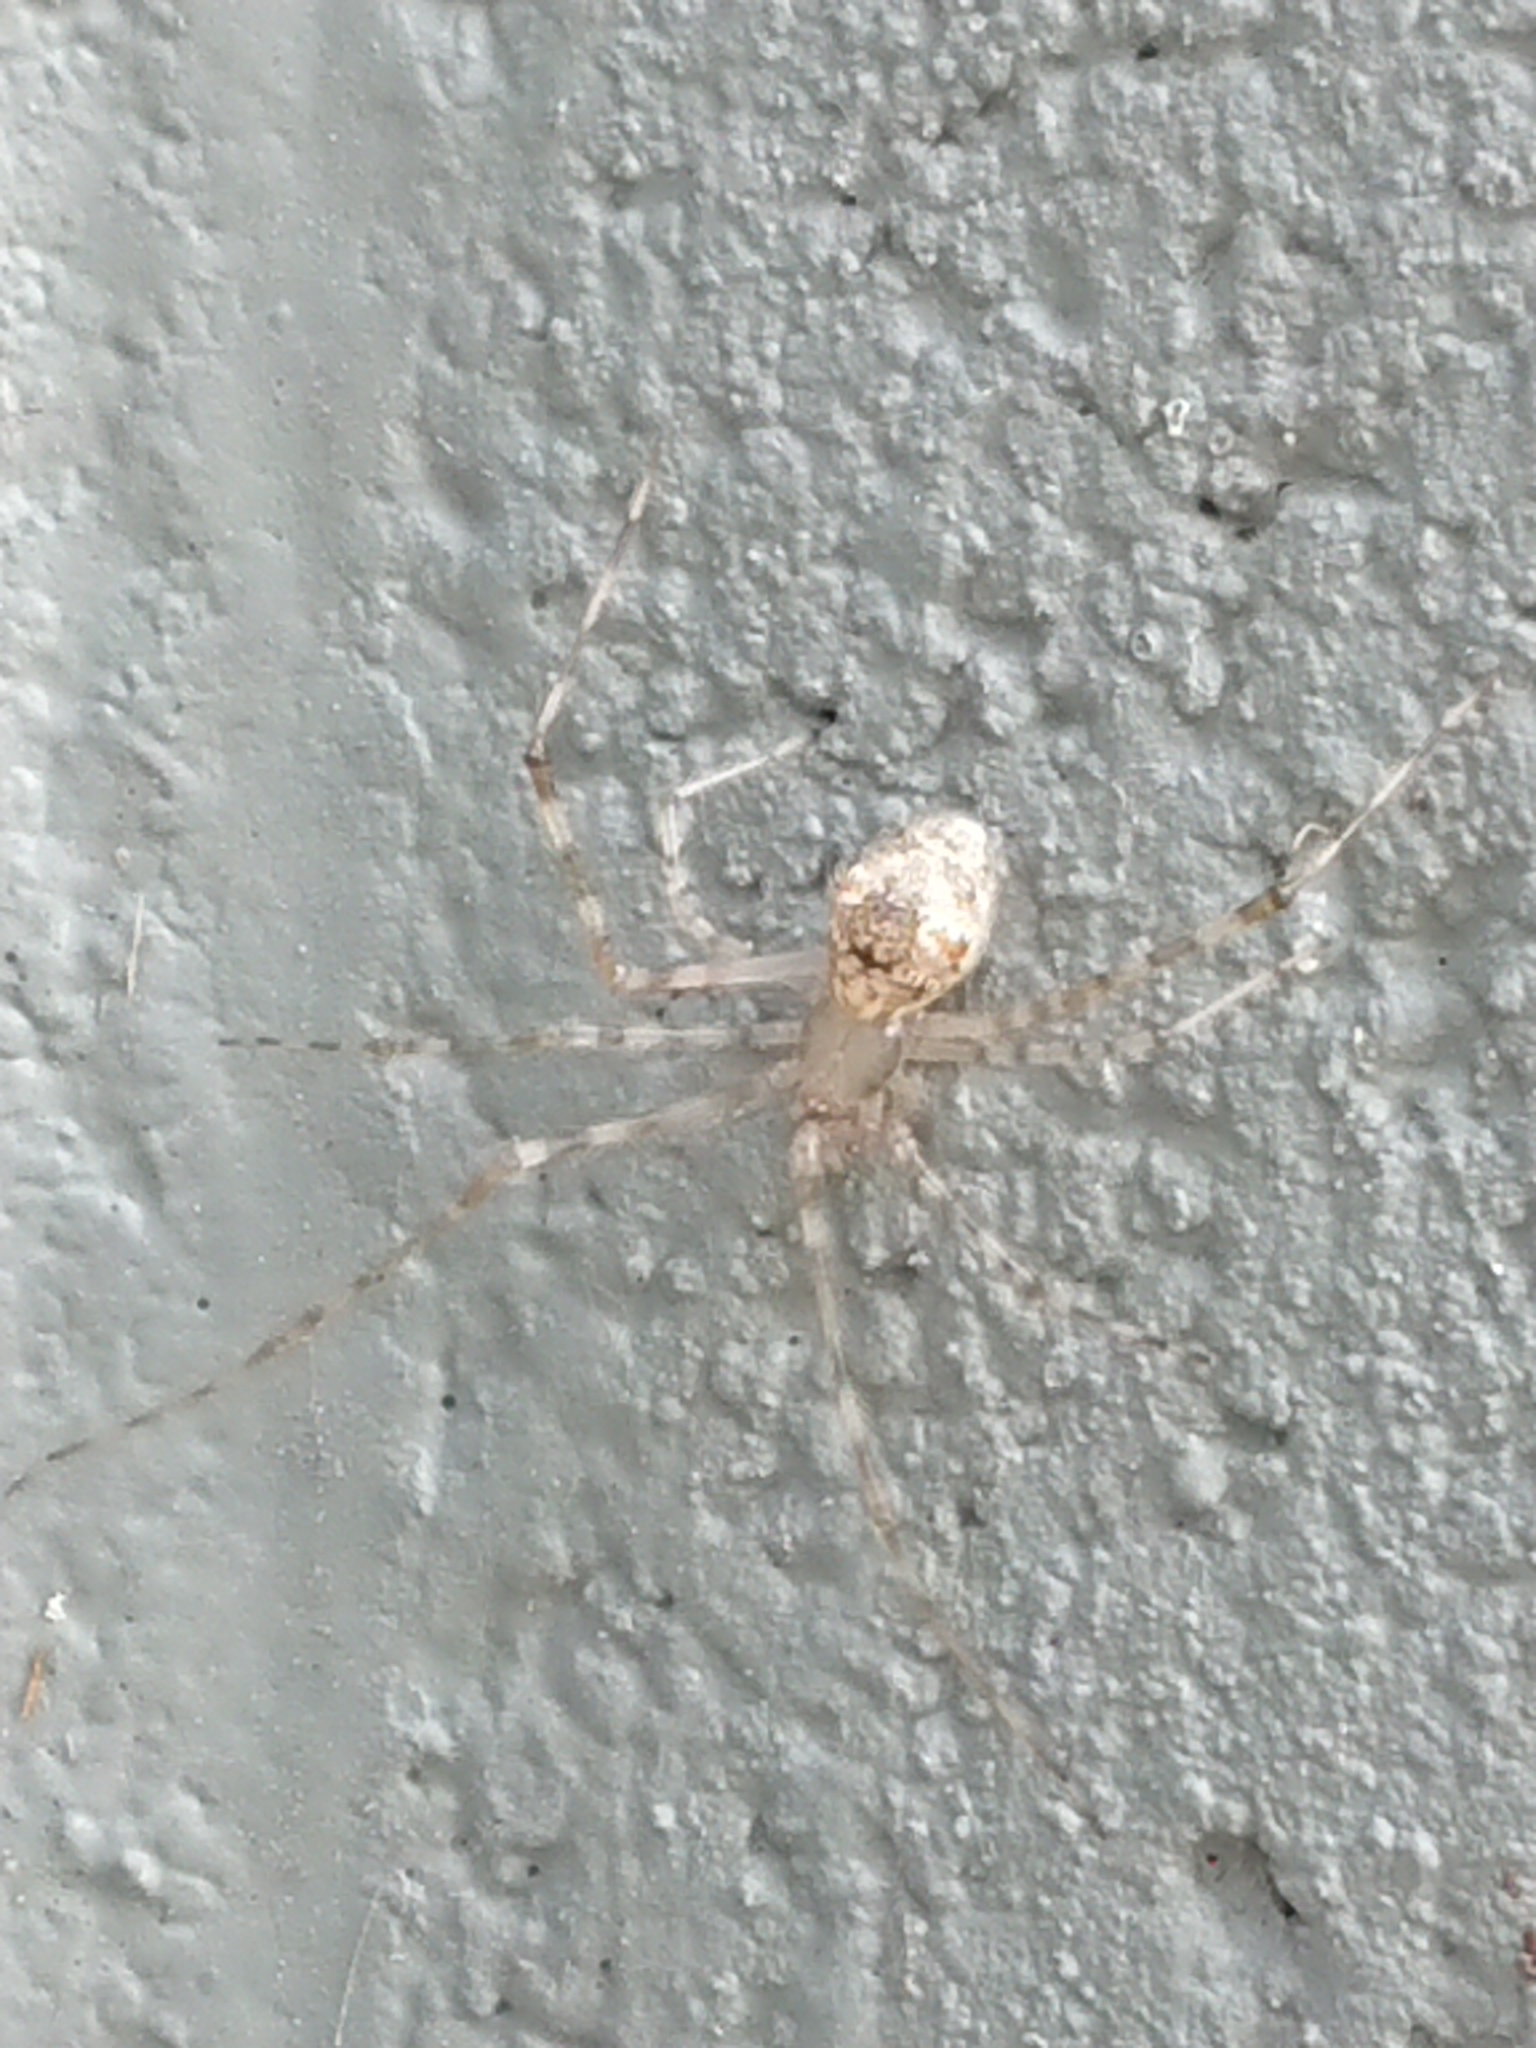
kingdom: Animalia
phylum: Arthropoda
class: Arachnida
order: Araneae
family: Theridiidae
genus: Cryptachaea
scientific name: Cryptachaea gigantipes
